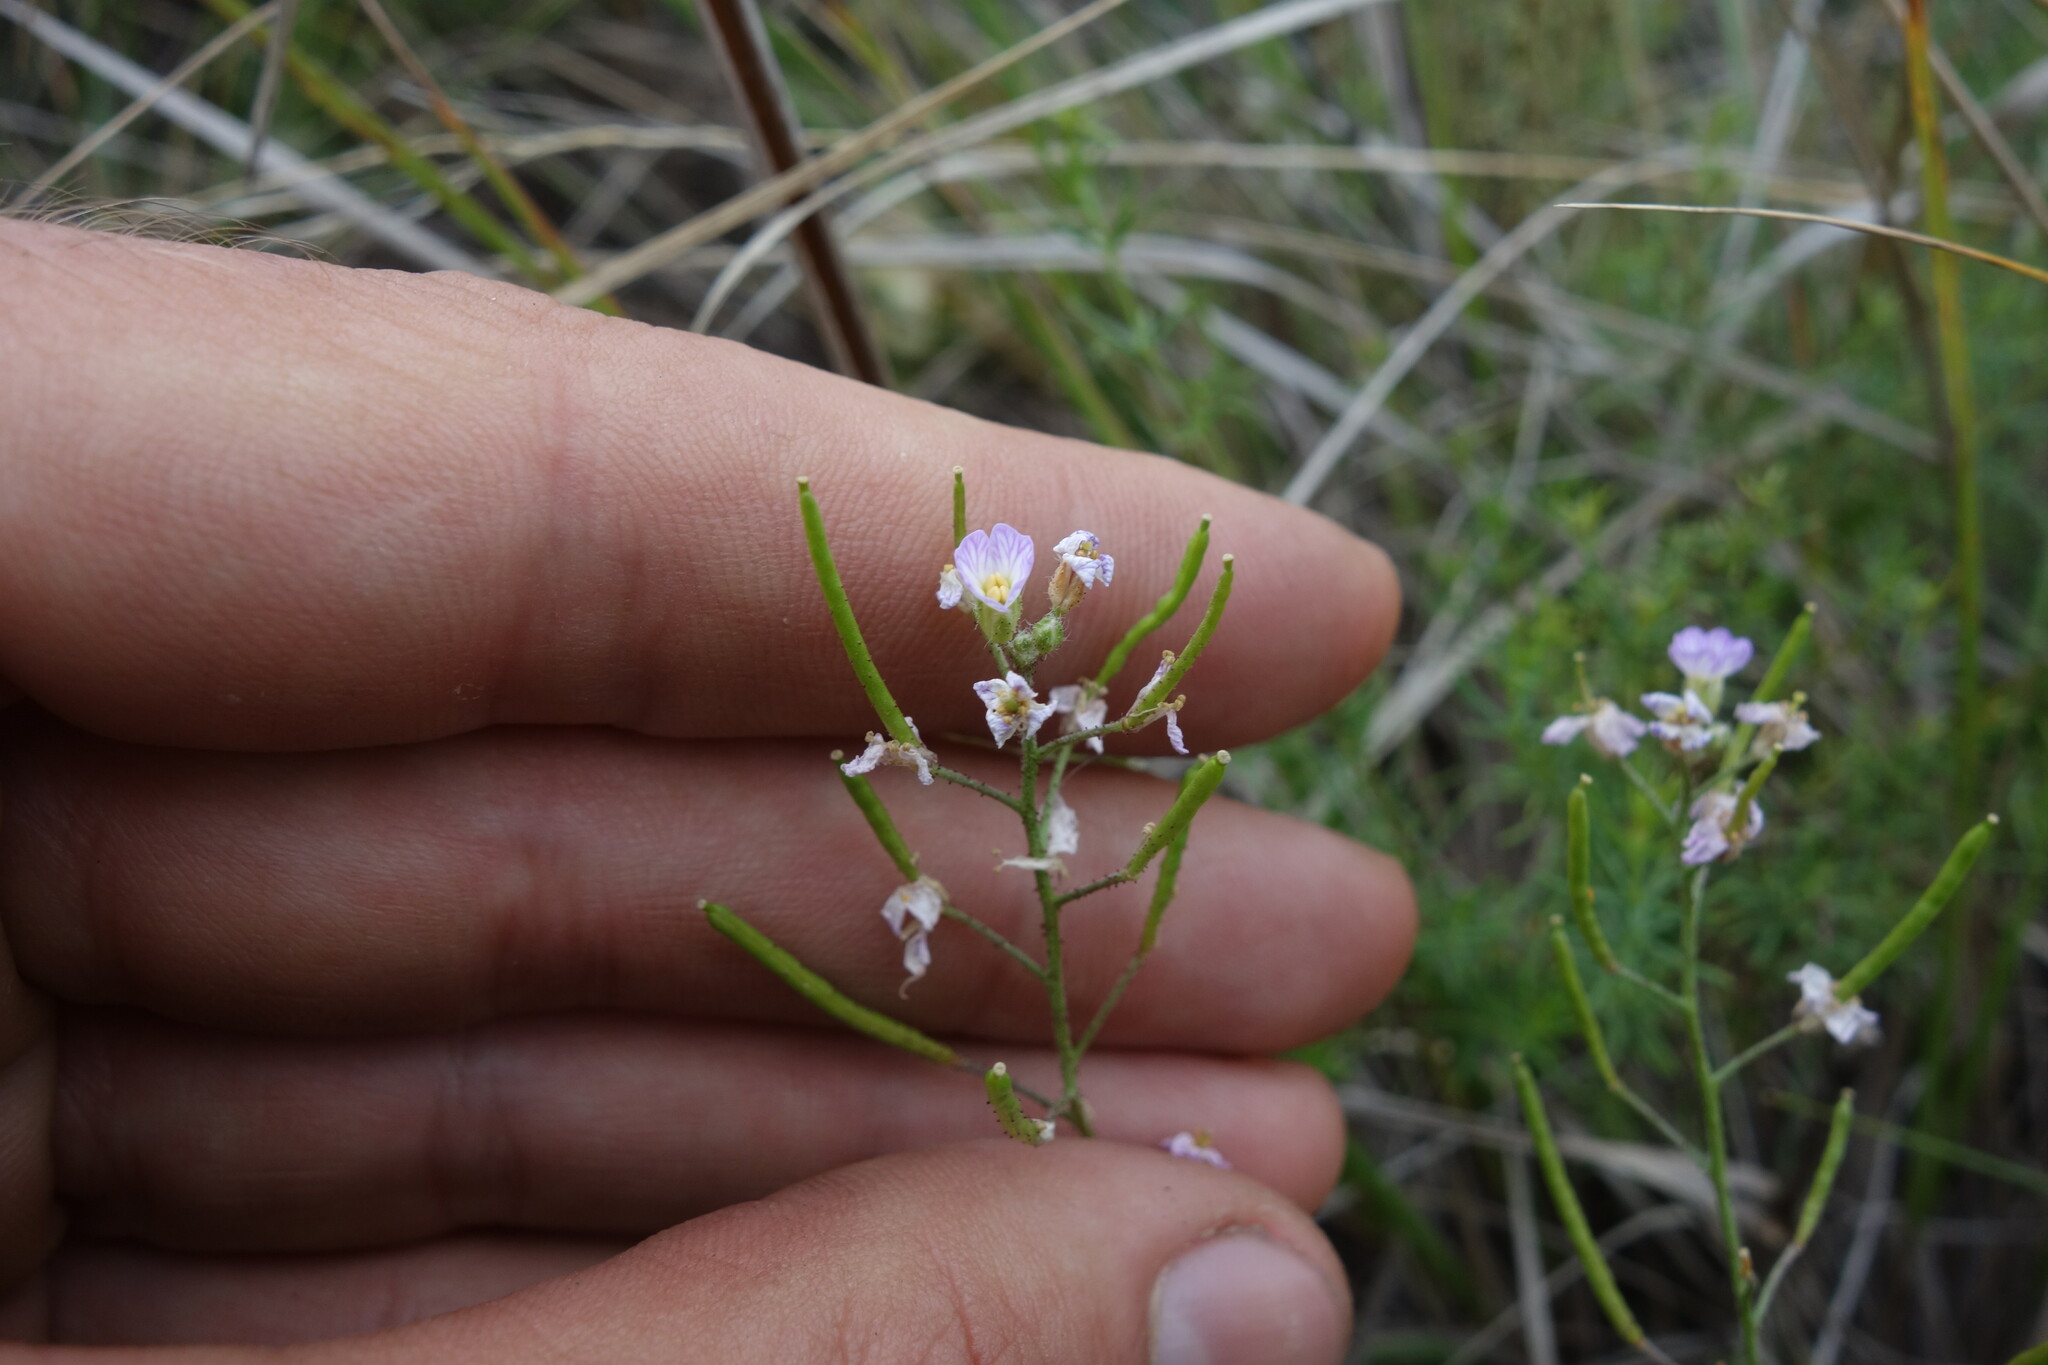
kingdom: Plantae
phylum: Tracheophyta
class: Magnoliopsida
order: Brassicales
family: Brassicaceae
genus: Dontostemon
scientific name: Dontostemon integrifolius
